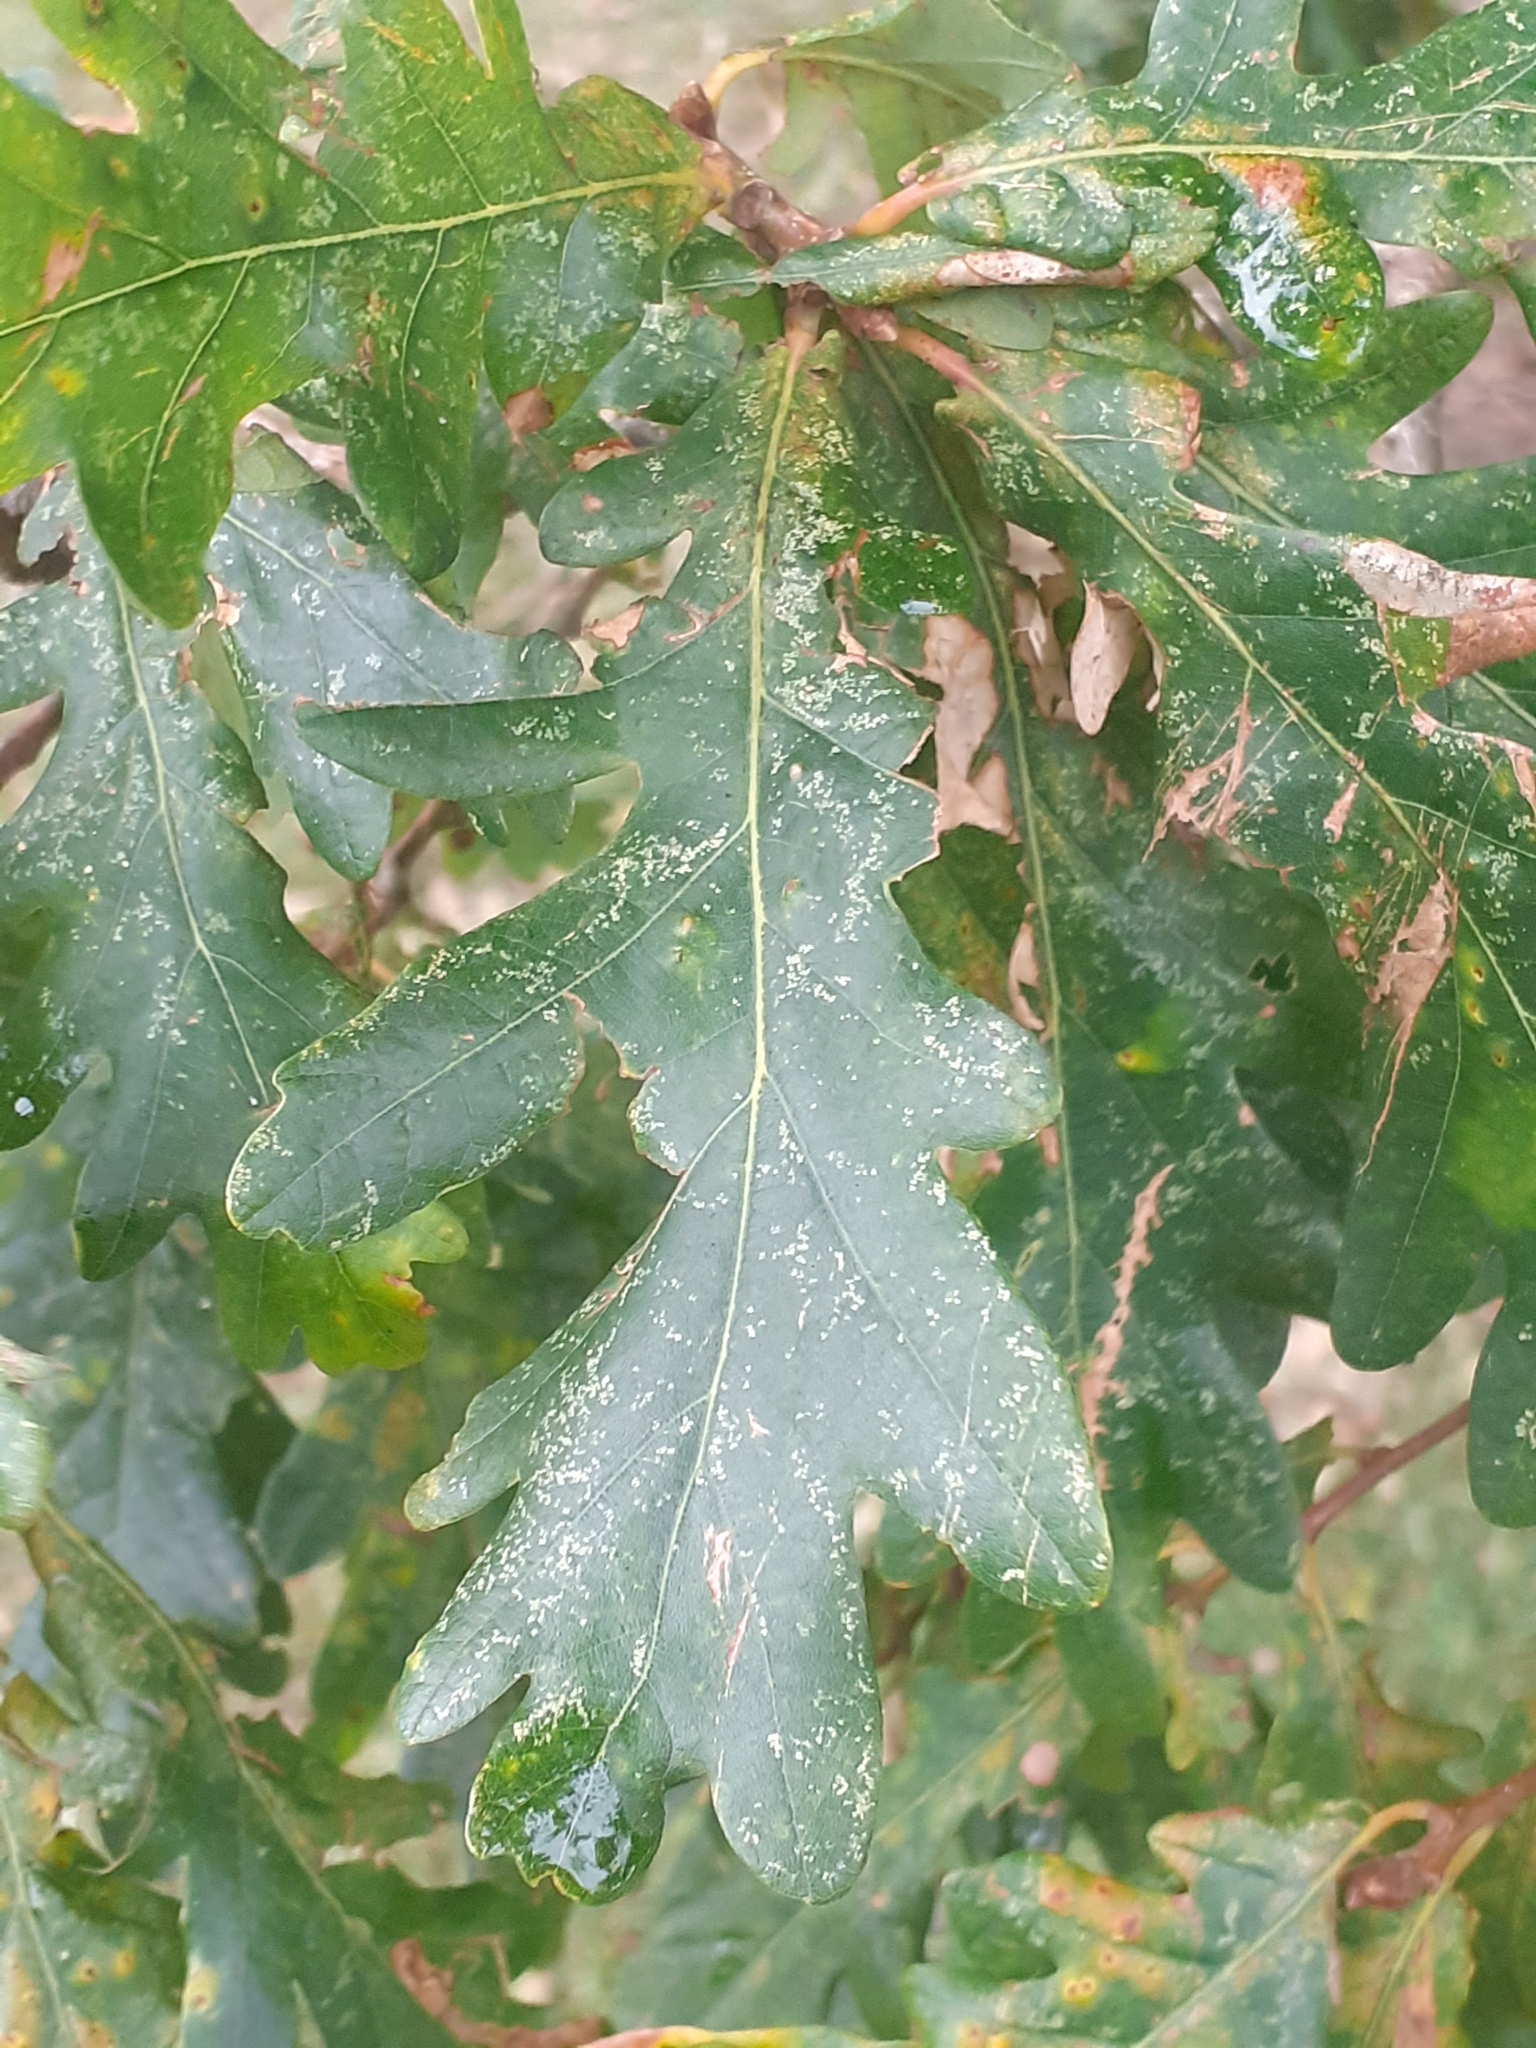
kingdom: Plantae
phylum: Tracheophyta
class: Magnoliopsida
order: Fagales
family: Fagaceae
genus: Quercus
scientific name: Quercus robur
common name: Pedunculate oak
